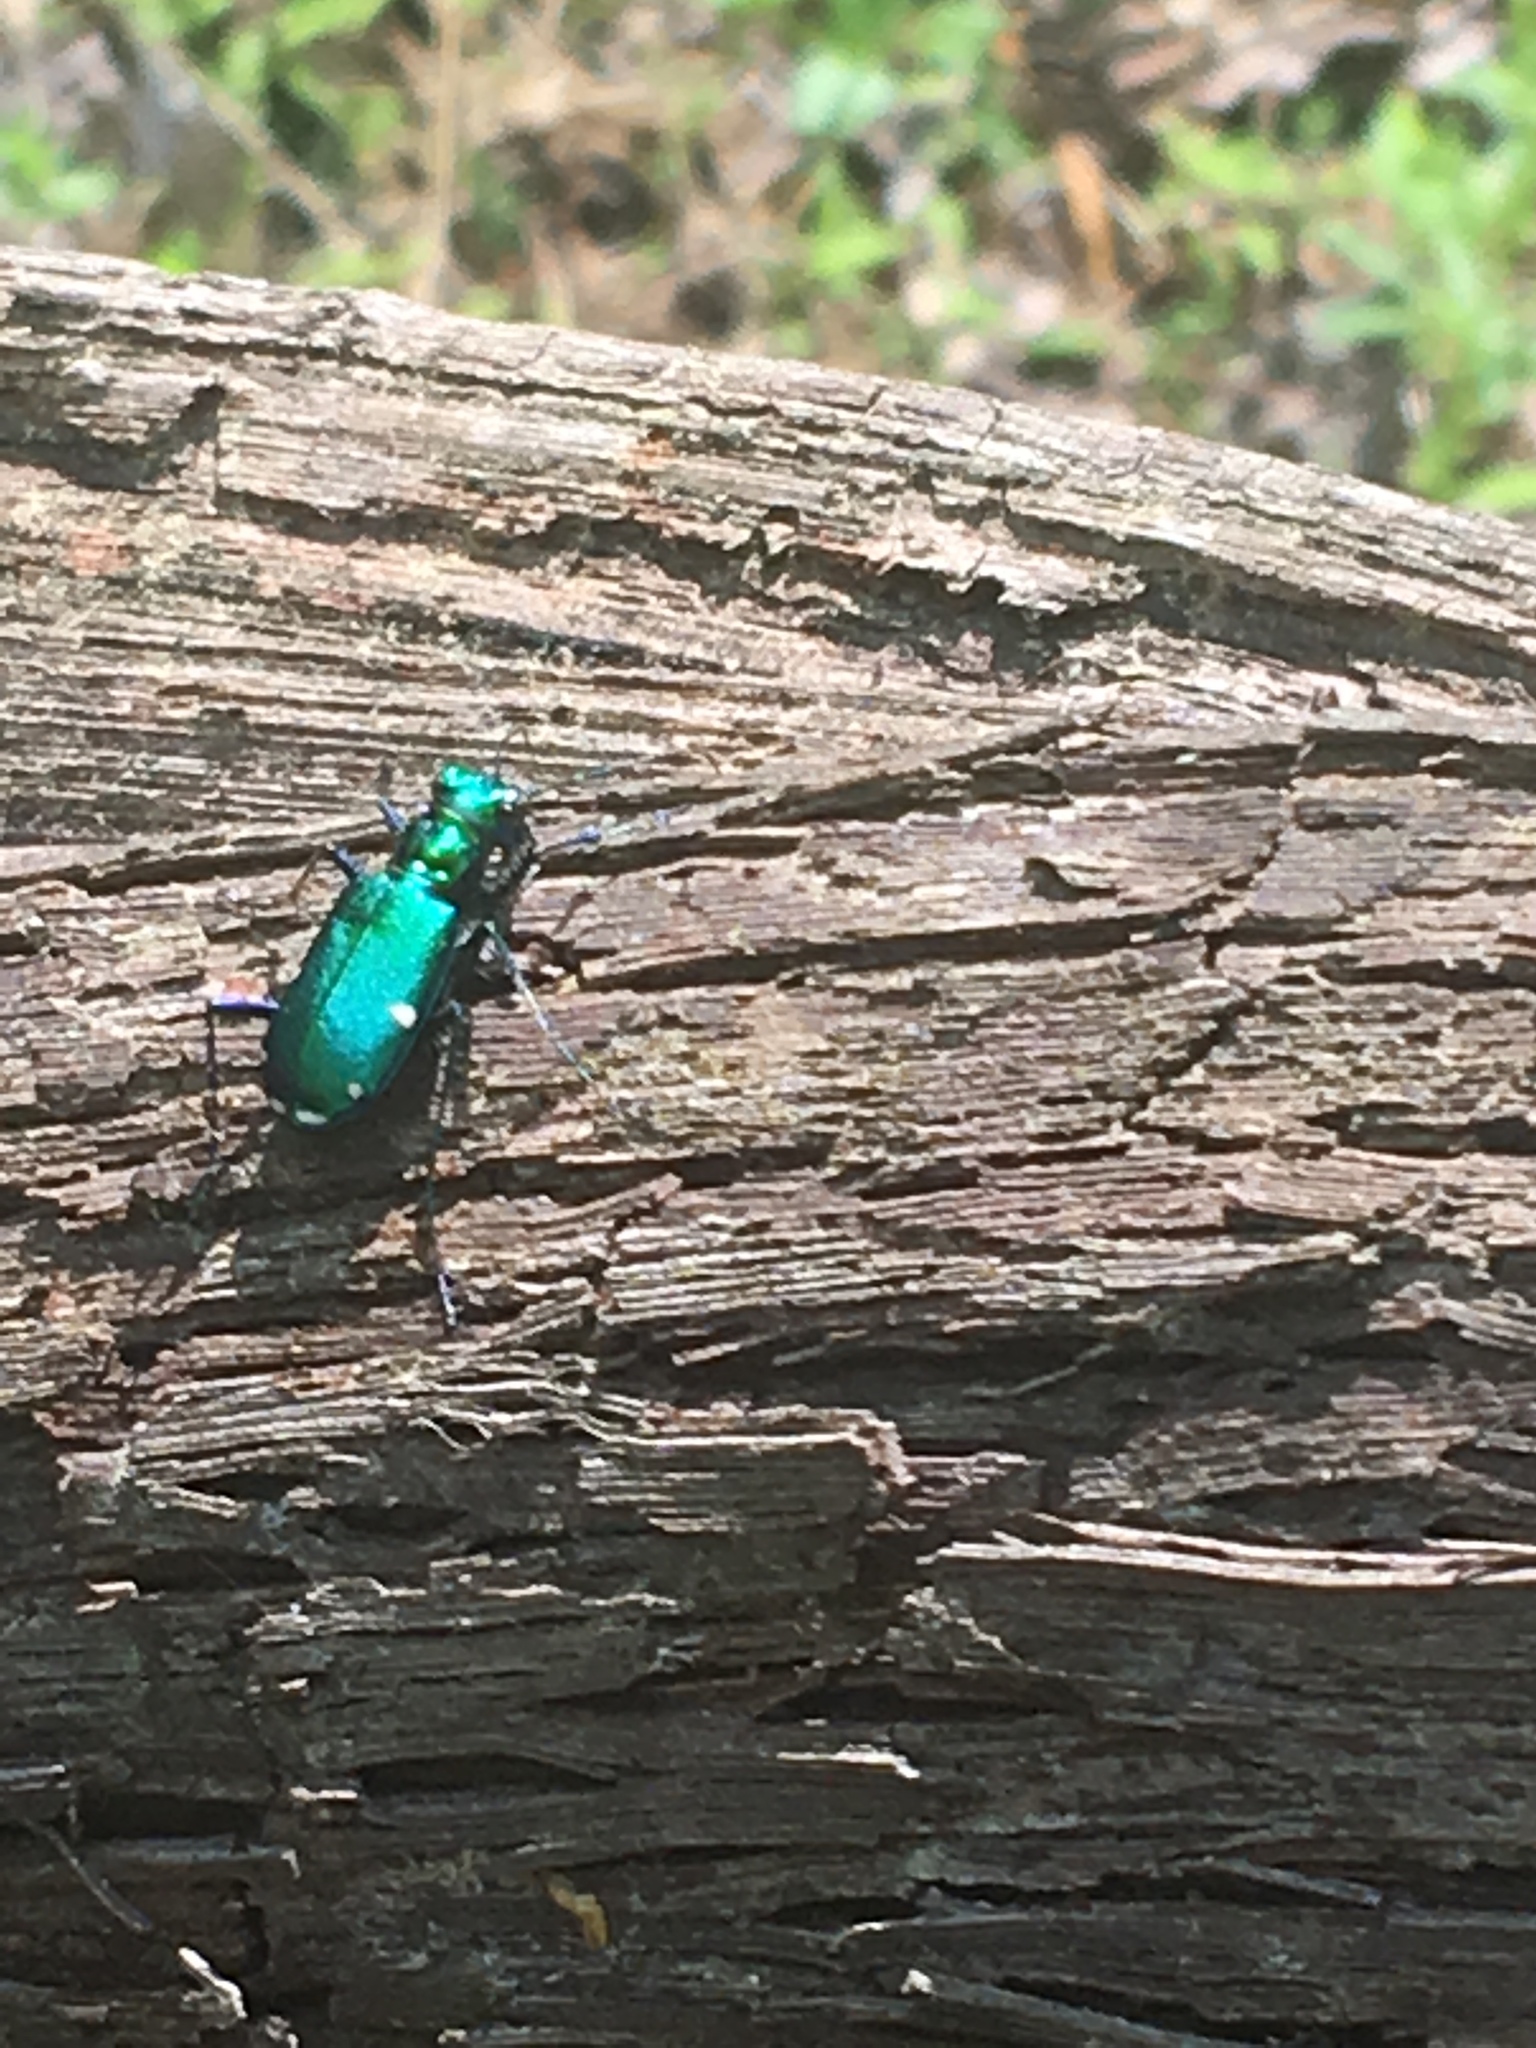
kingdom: Animalia
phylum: Arthropoda
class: Insecta
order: Coleoptera
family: Carabidae
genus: Cicindela
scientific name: Cicindela sexguttata
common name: Six-spotted tiger beetle
